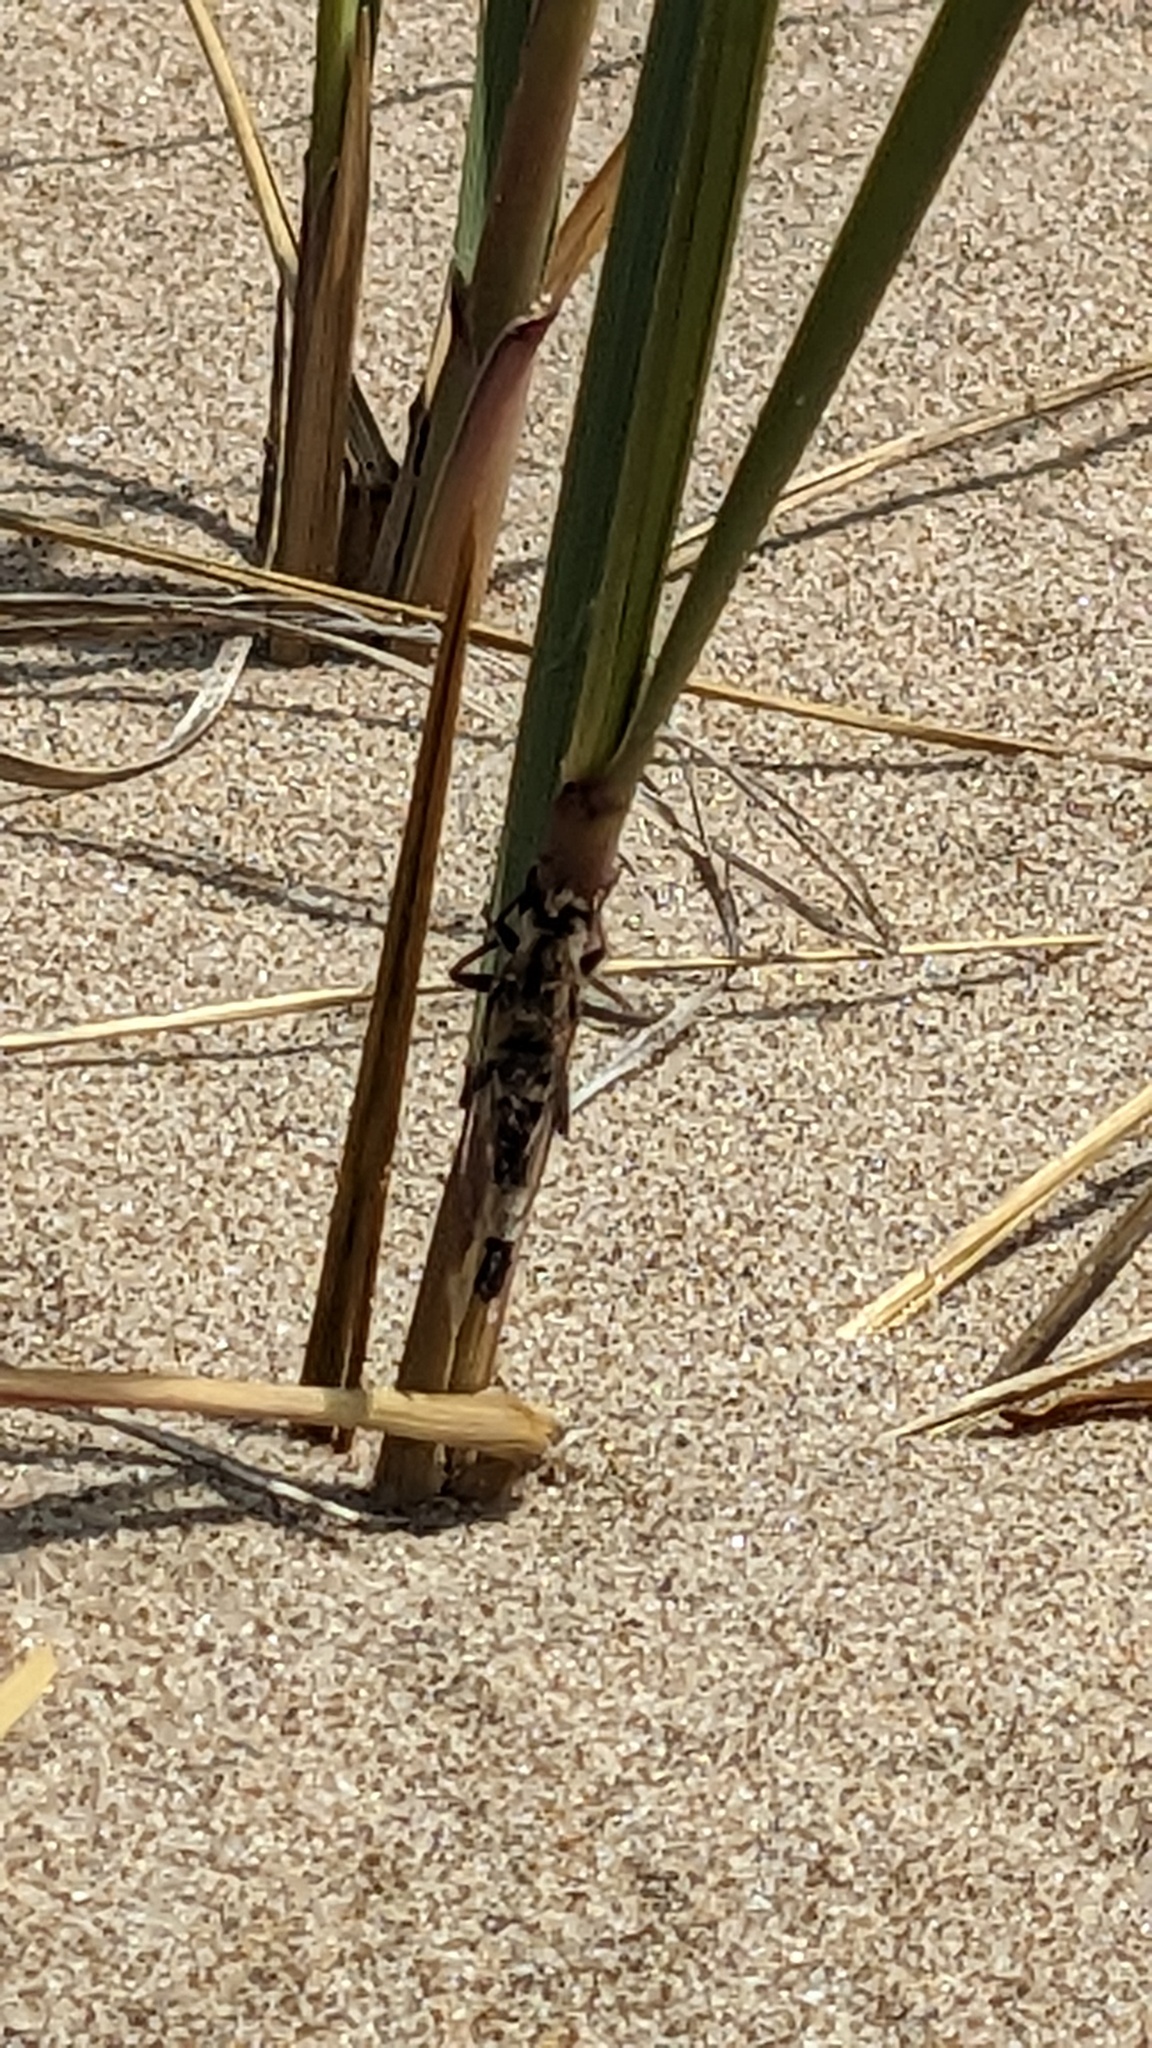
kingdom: Animalia
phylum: Arthropoda
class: Insecta
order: Diptera
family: Asilidae
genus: Efferia
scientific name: Efferia albibarbis
